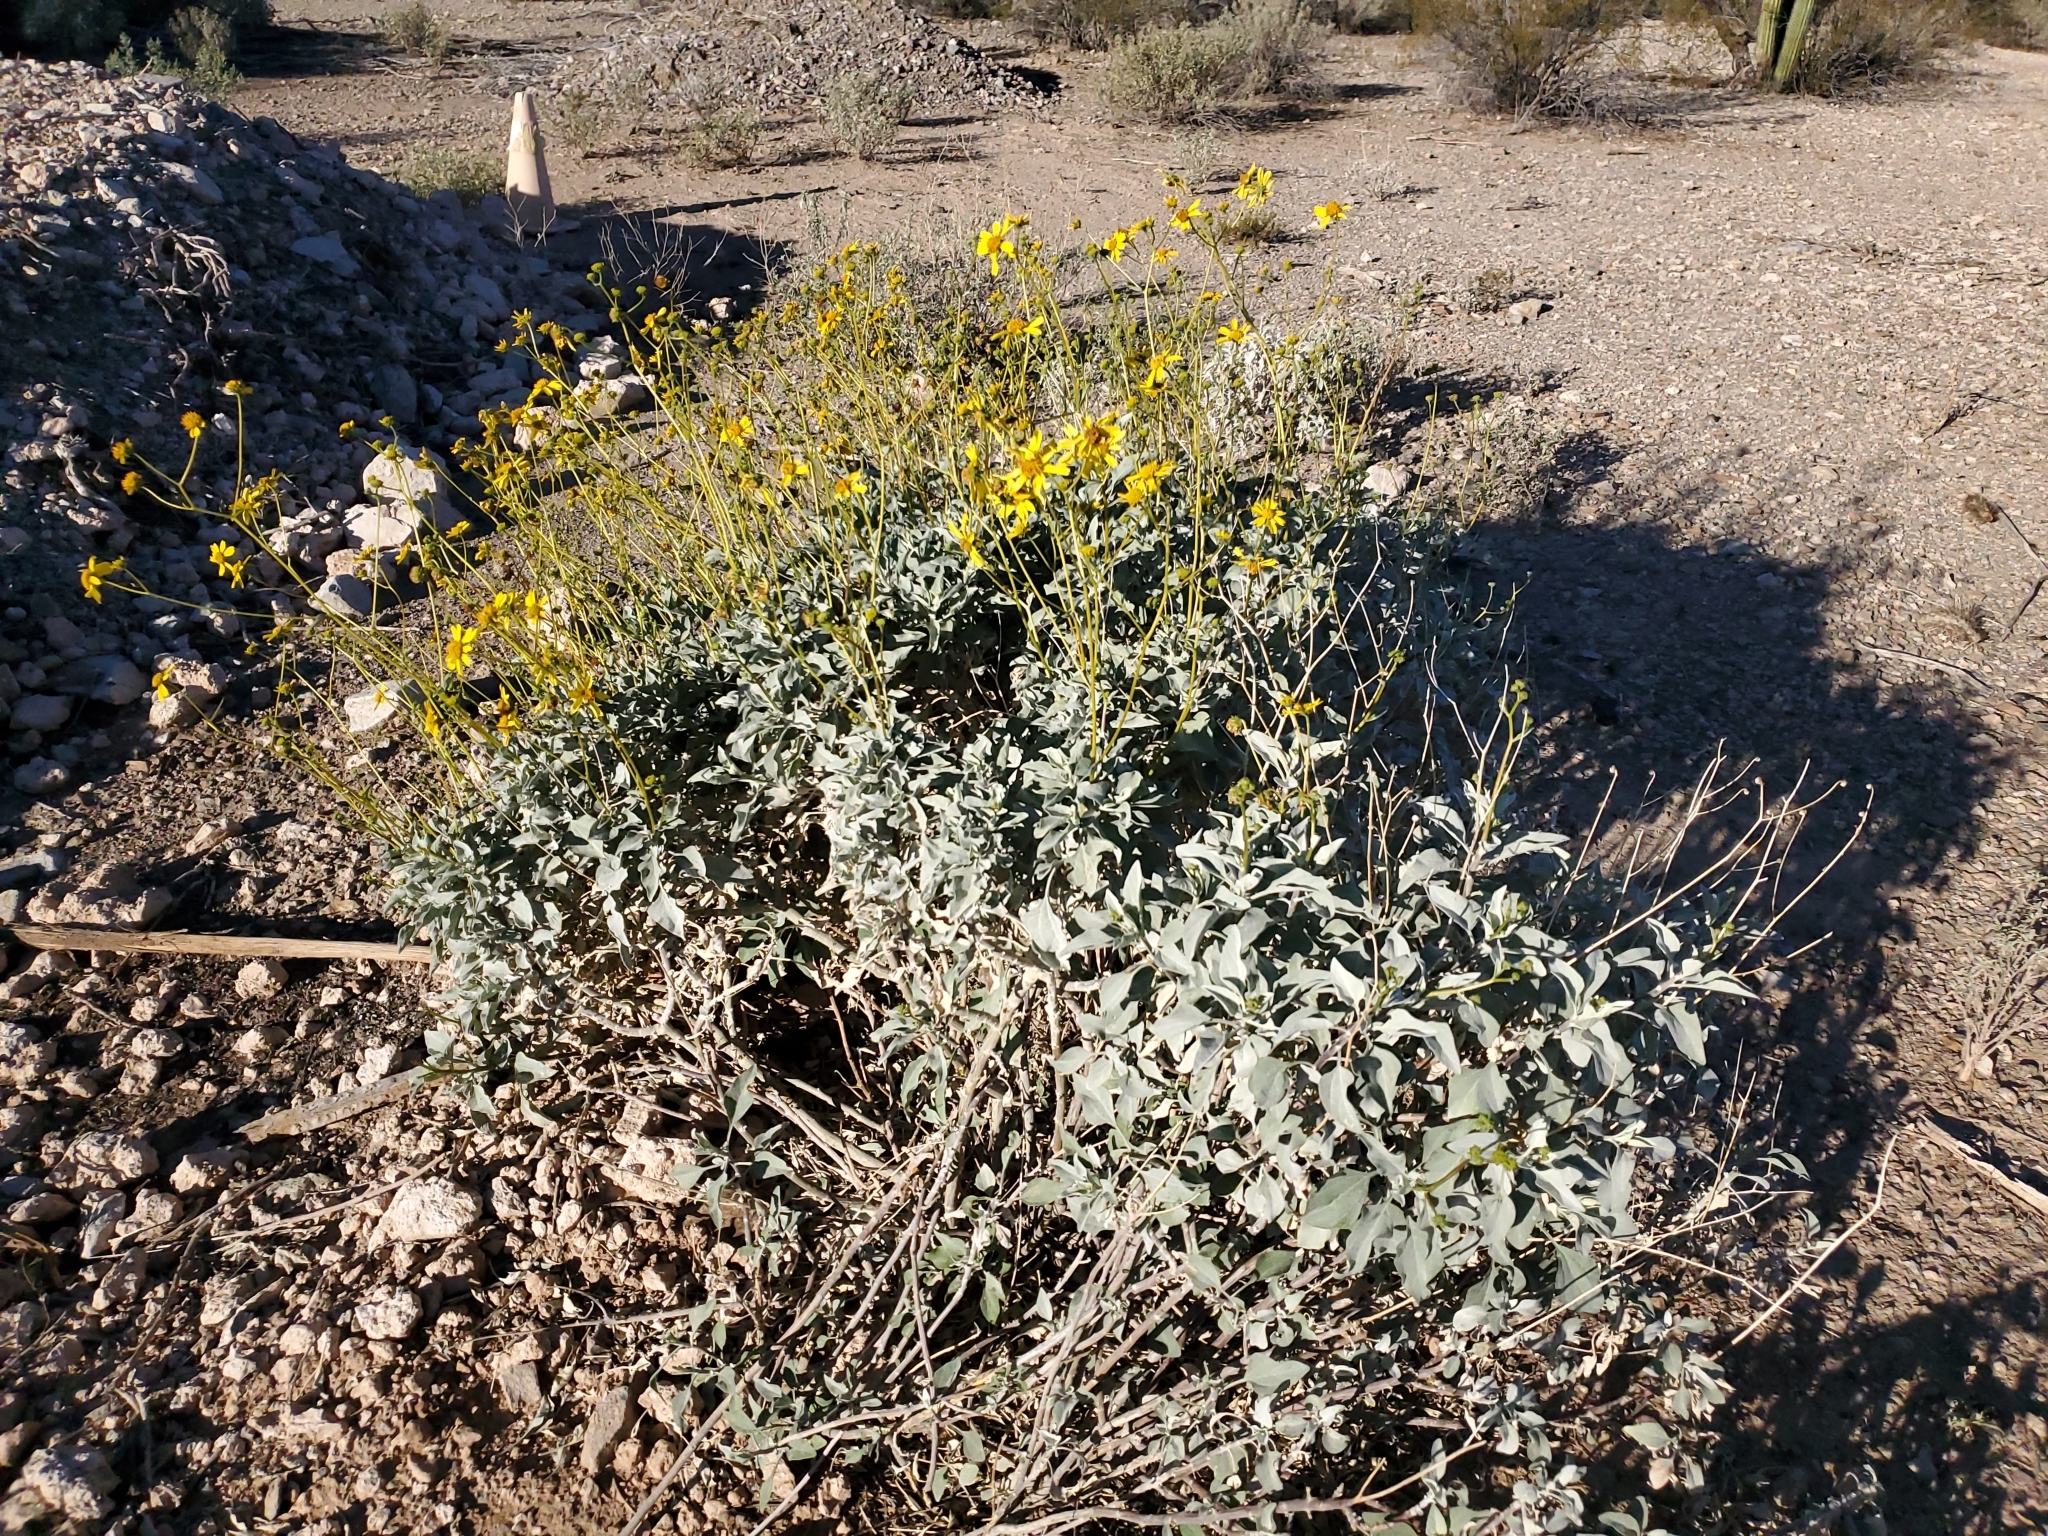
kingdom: Plantae
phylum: Tracheophyta
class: Magnoliopsida
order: Asterales
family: Asteraceae
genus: Encelia
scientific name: Encelia farinosa
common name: Brittlebush
